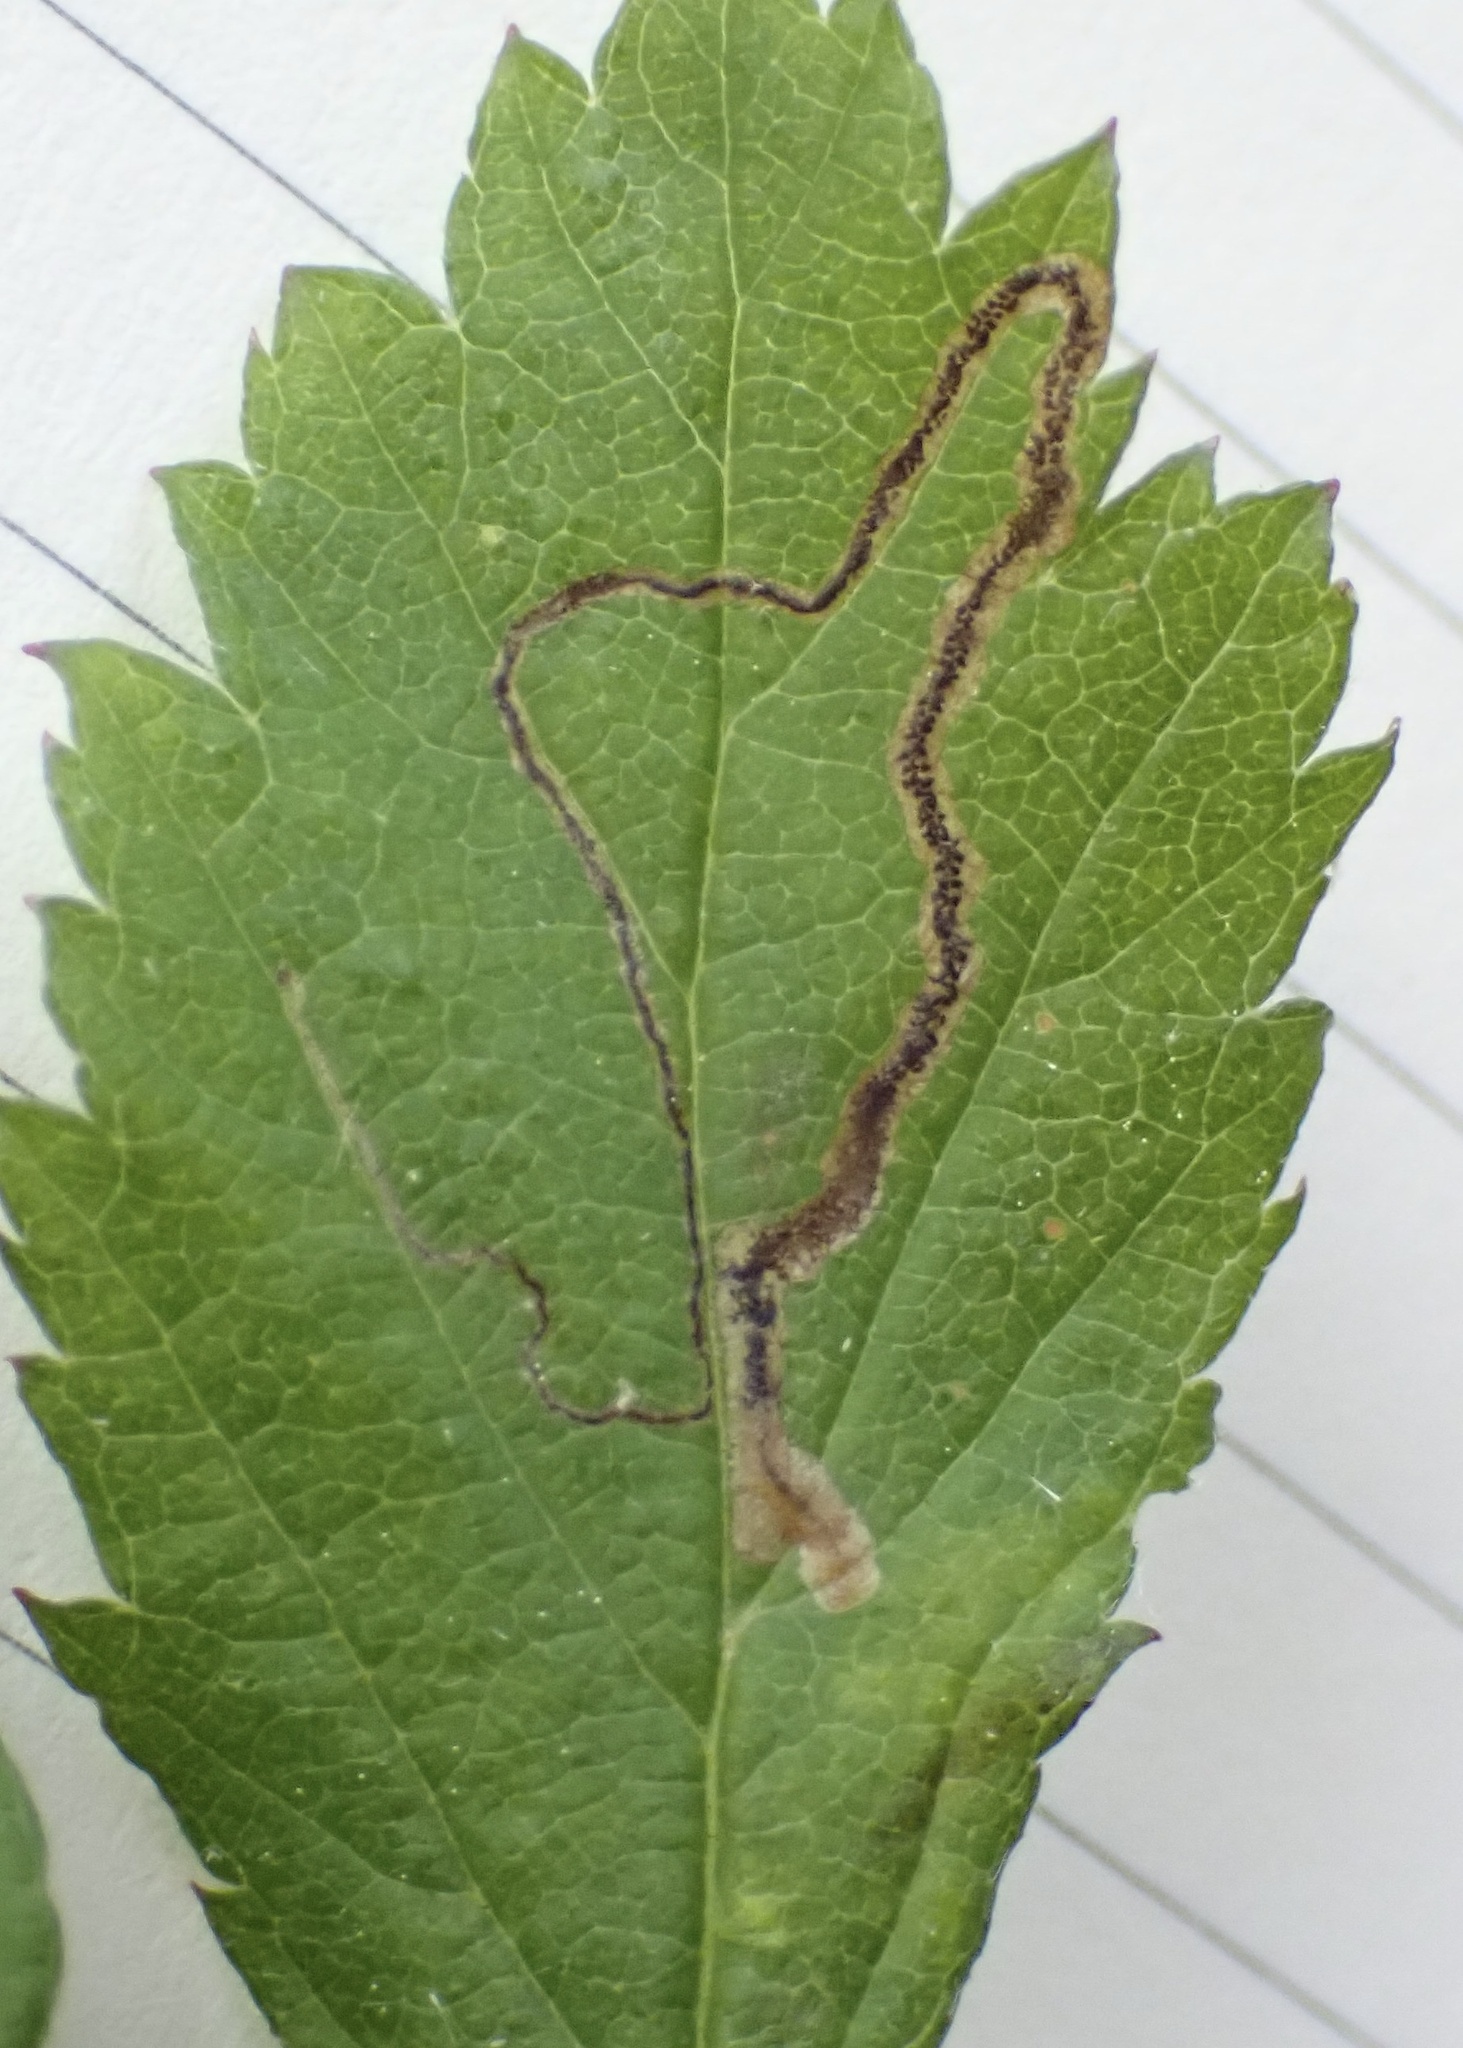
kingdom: Animalia
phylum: Arthropoda
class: Insecta
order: Lepidoptera
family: Nepticulidae
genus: Stigmella
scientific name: Stigmella villosella
